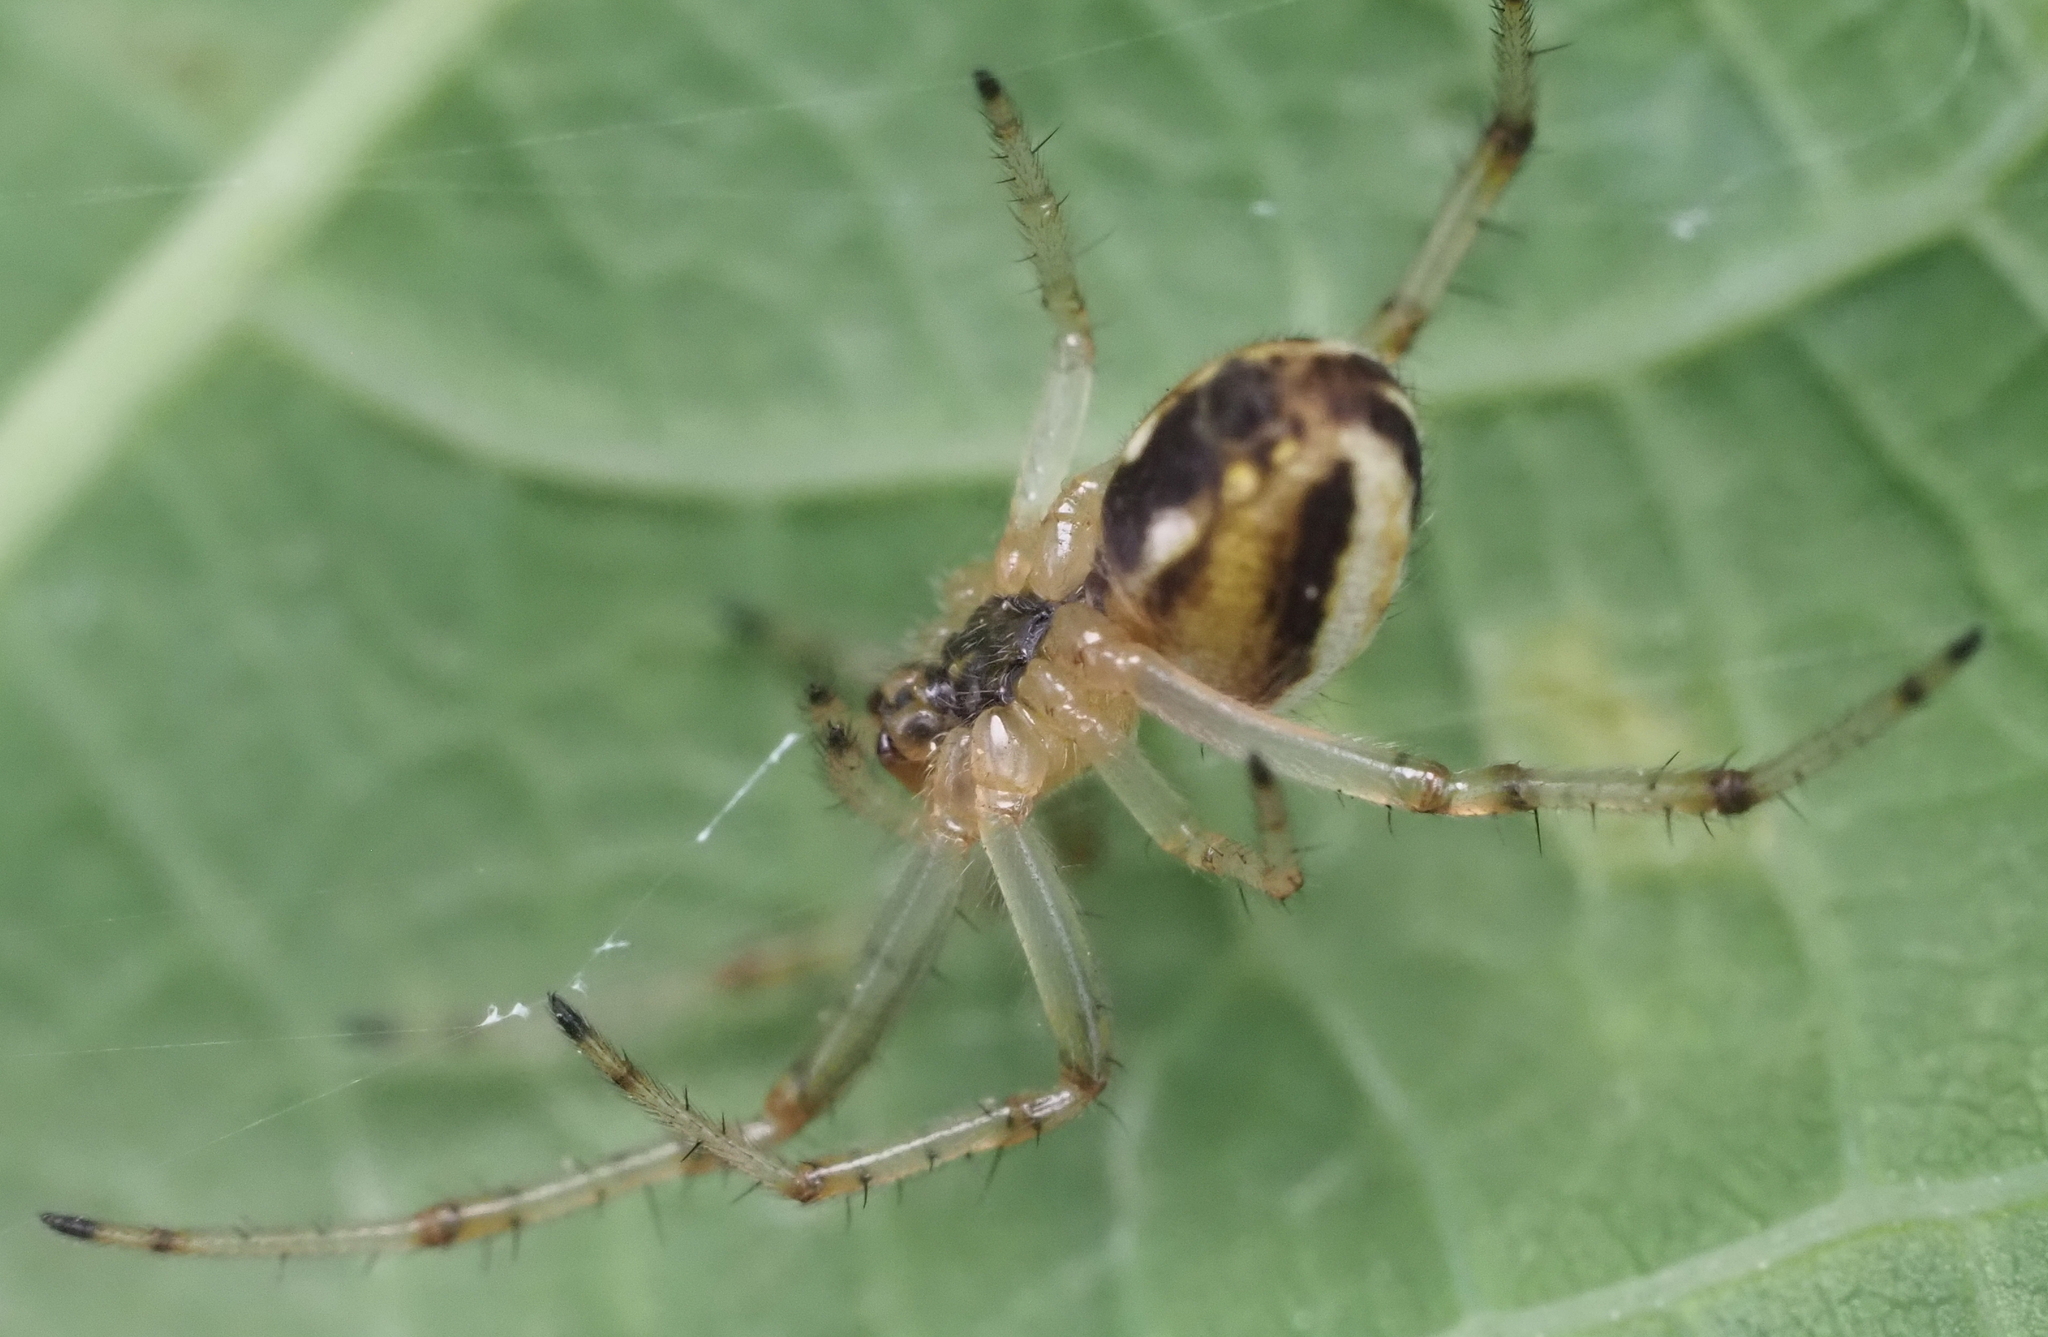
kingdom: Animalia
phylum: Arthropoda
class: Arachnida
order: Araneae
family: Araneidae
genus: Neoscona
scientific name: Neoscona moreli
